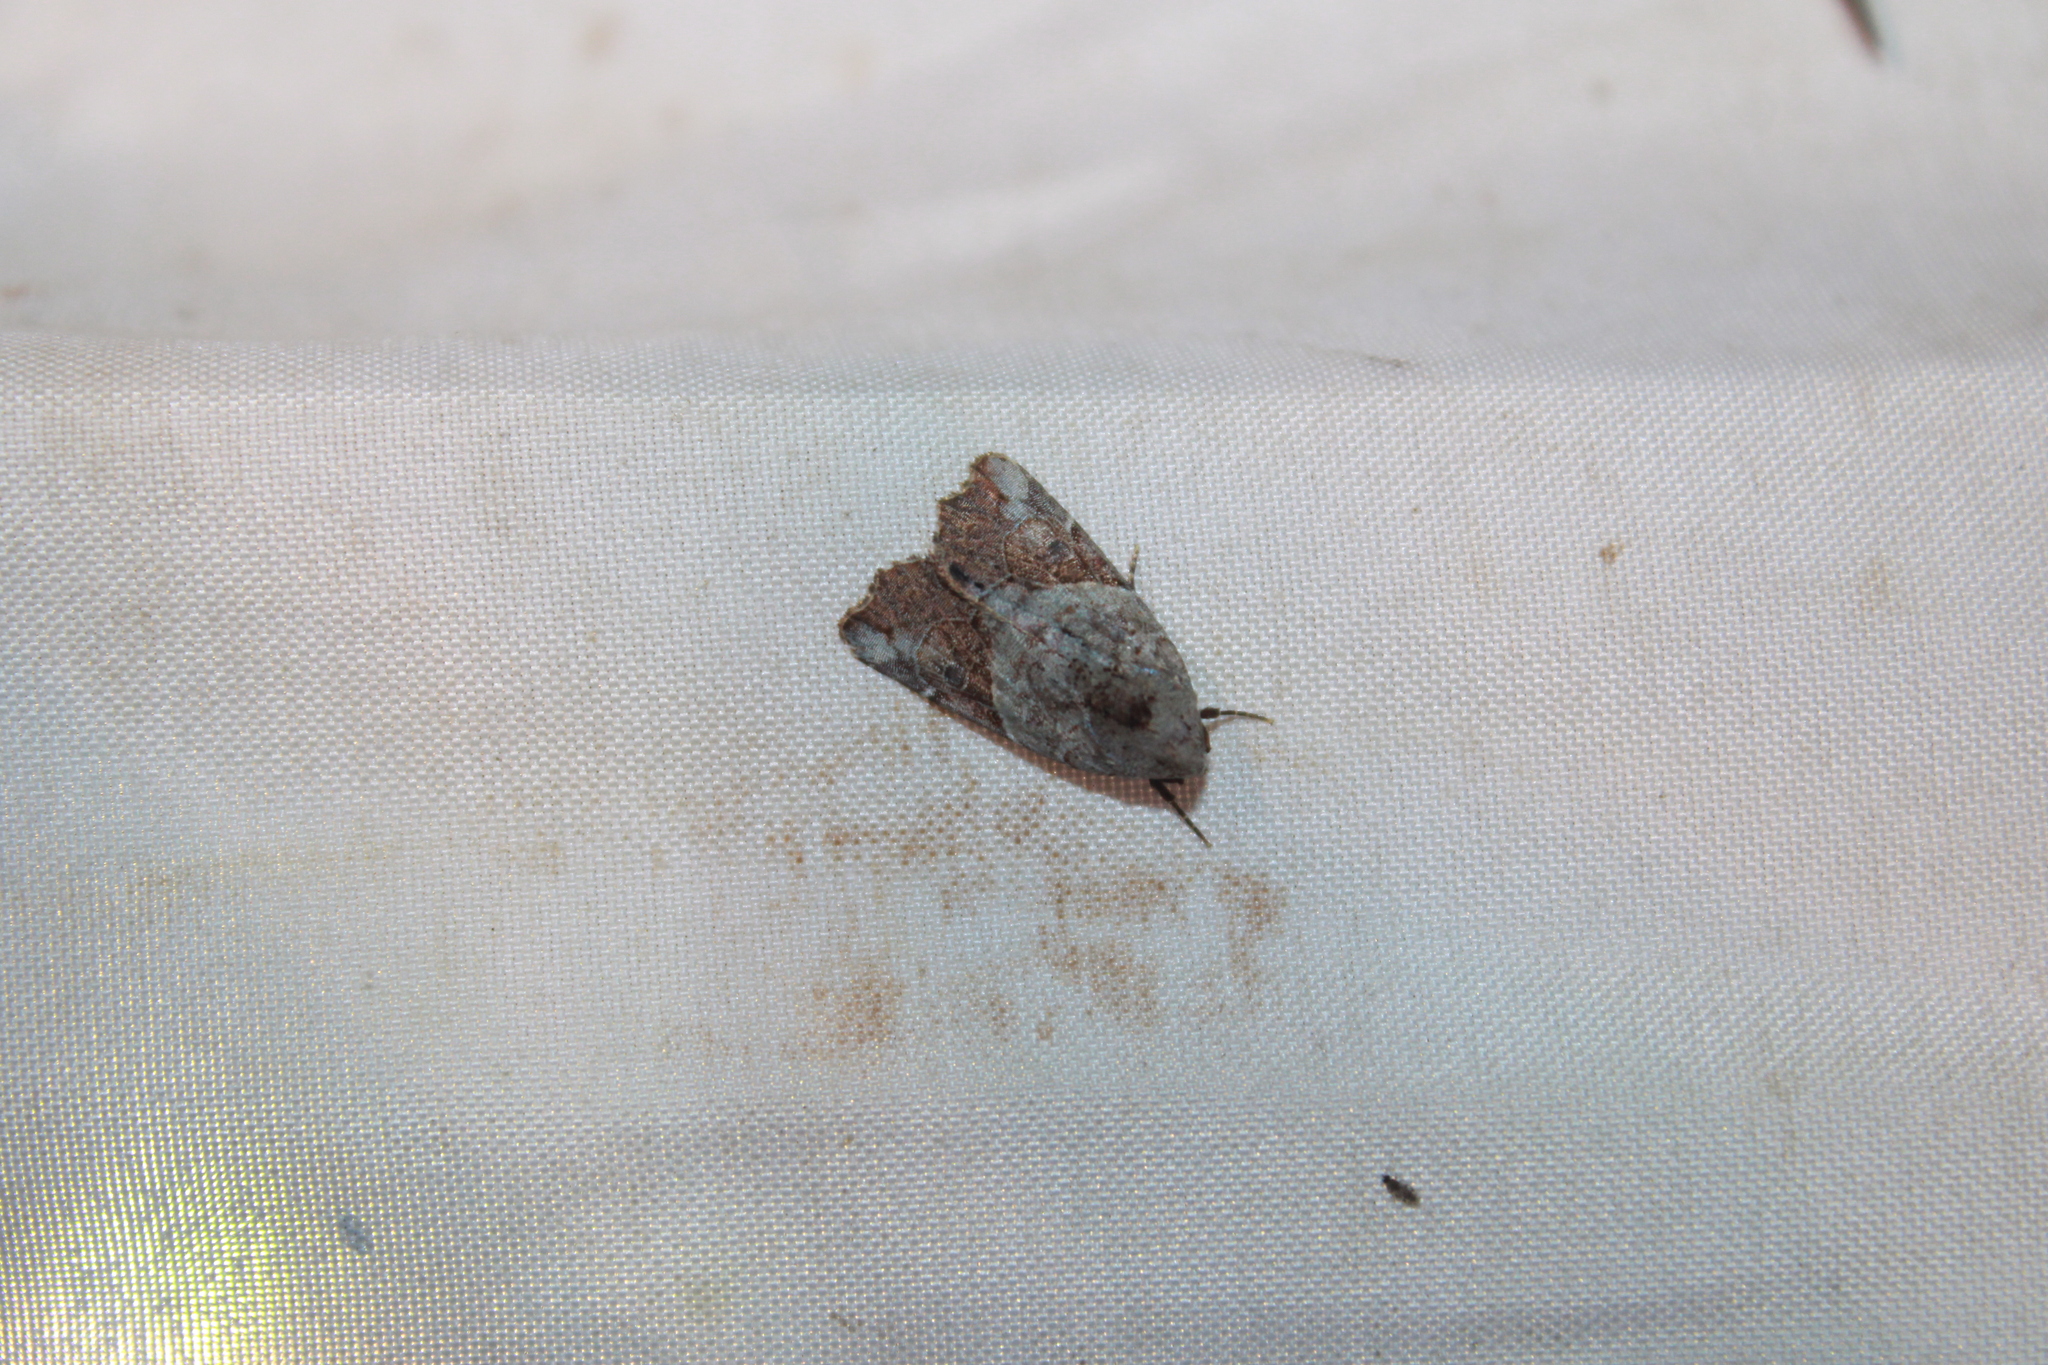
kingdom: Animalia
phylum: Arthropoda
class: Insecta
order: Lepidoptera
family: Noctuidae
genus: Gonodes
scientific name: Gonodes liquida
